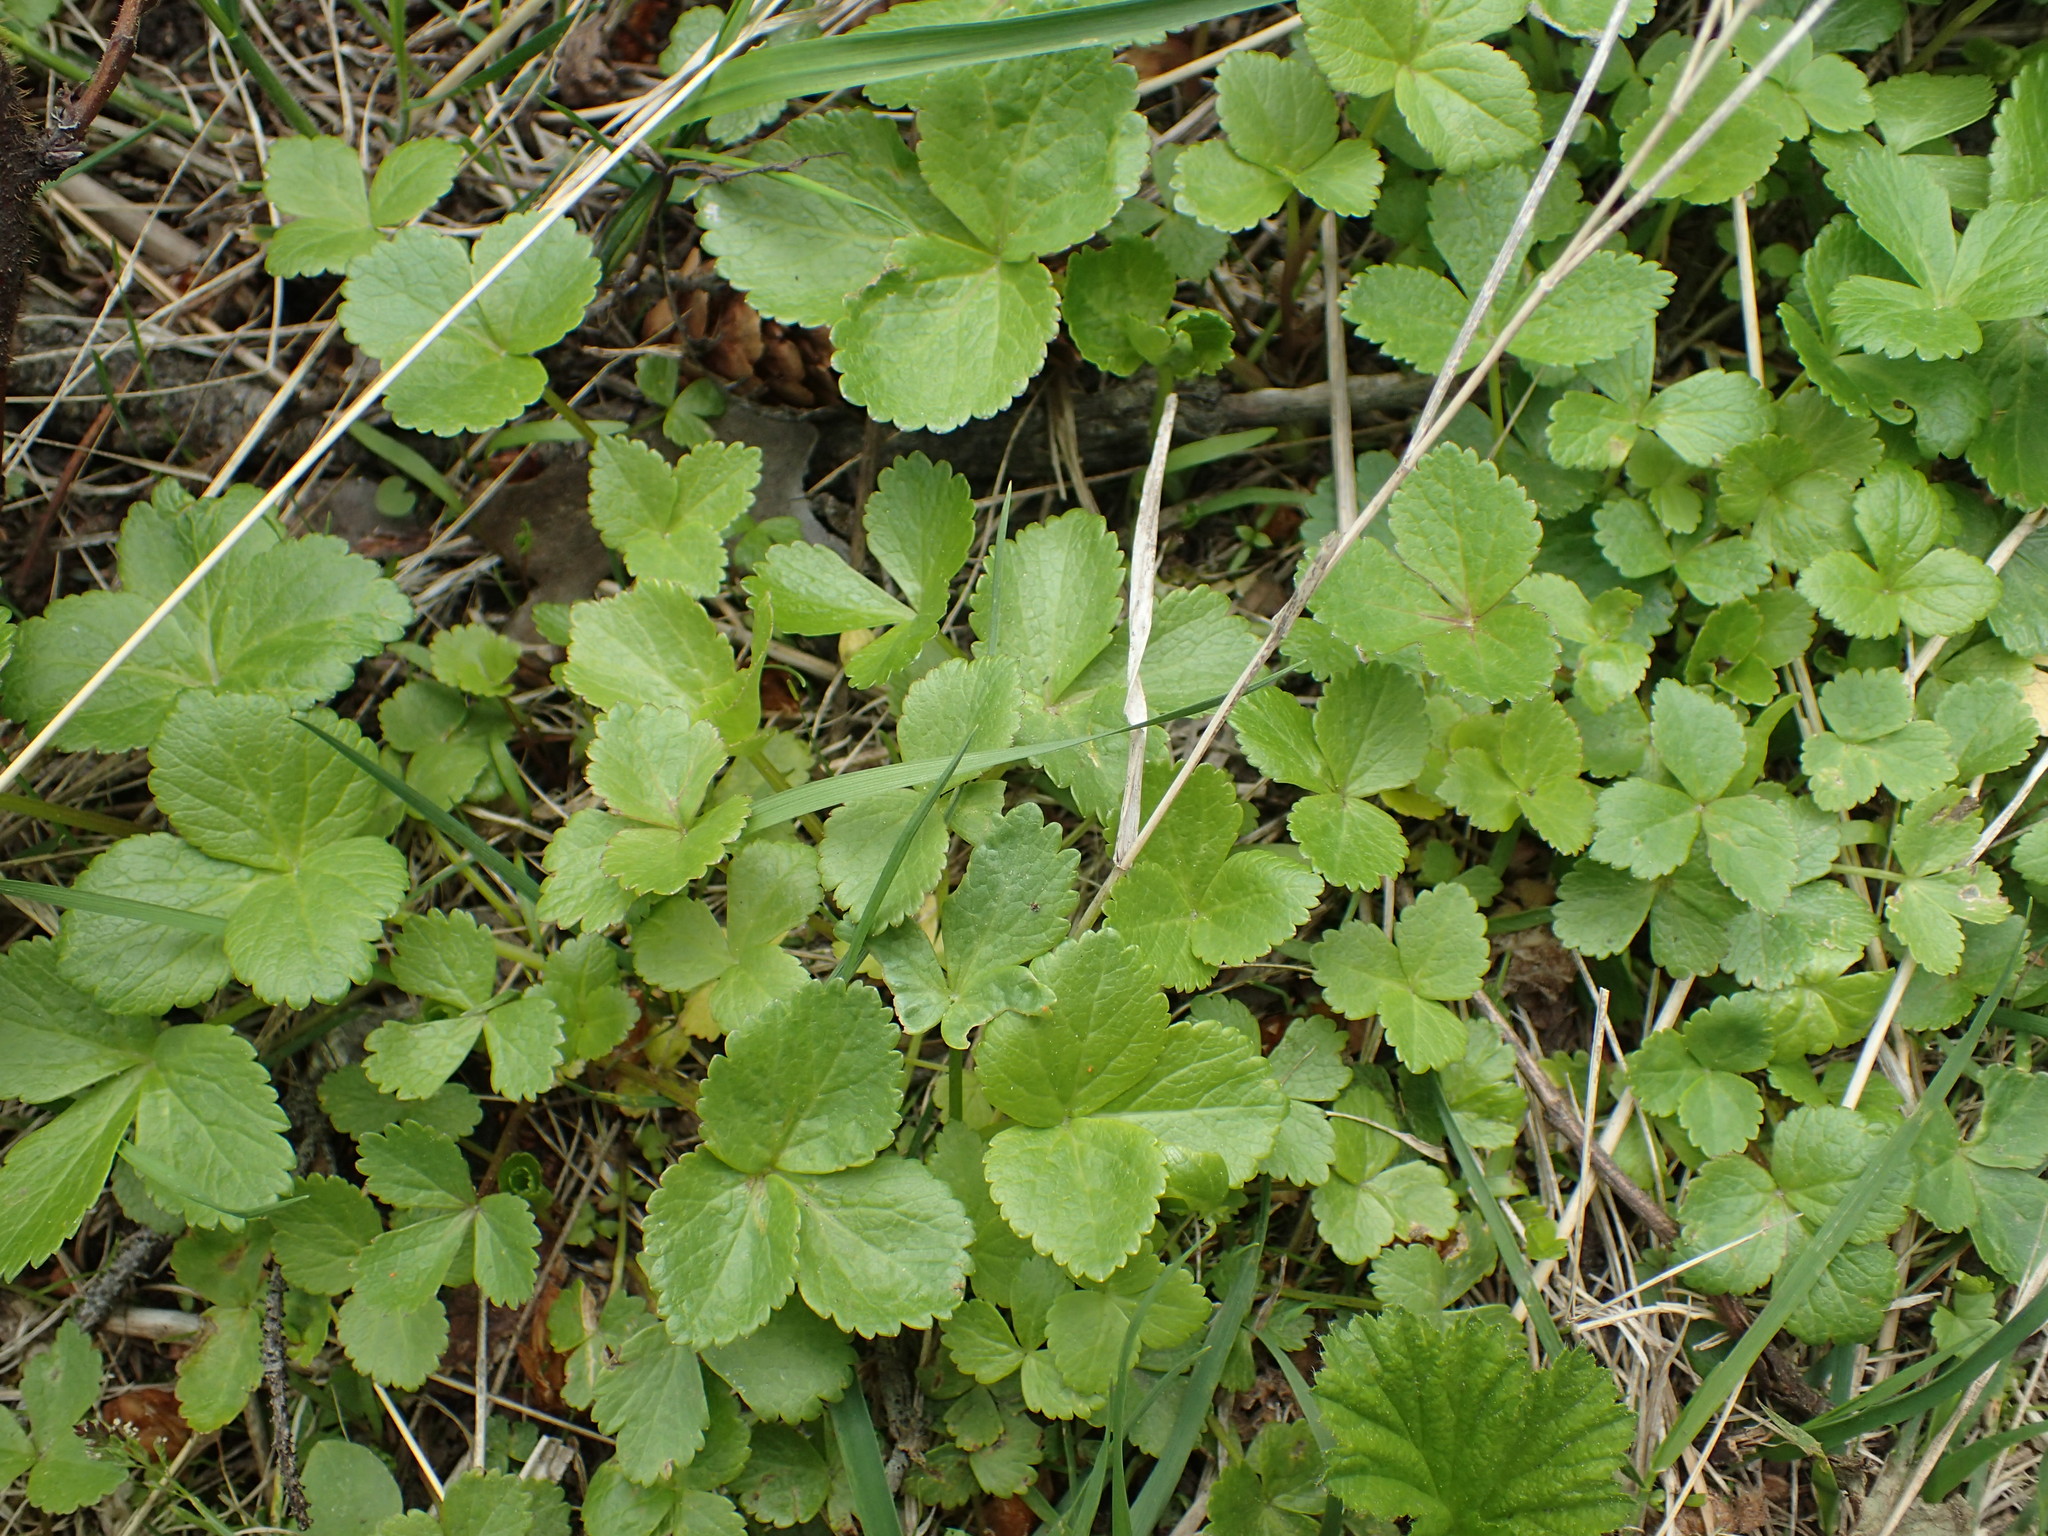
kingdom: Plantae
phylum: Tracheophyta
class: Magnoliopsida
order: Apiales
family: Apiaceae
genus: Ligusticum
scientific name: Ligusticum scothicum
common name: Beach lovage
